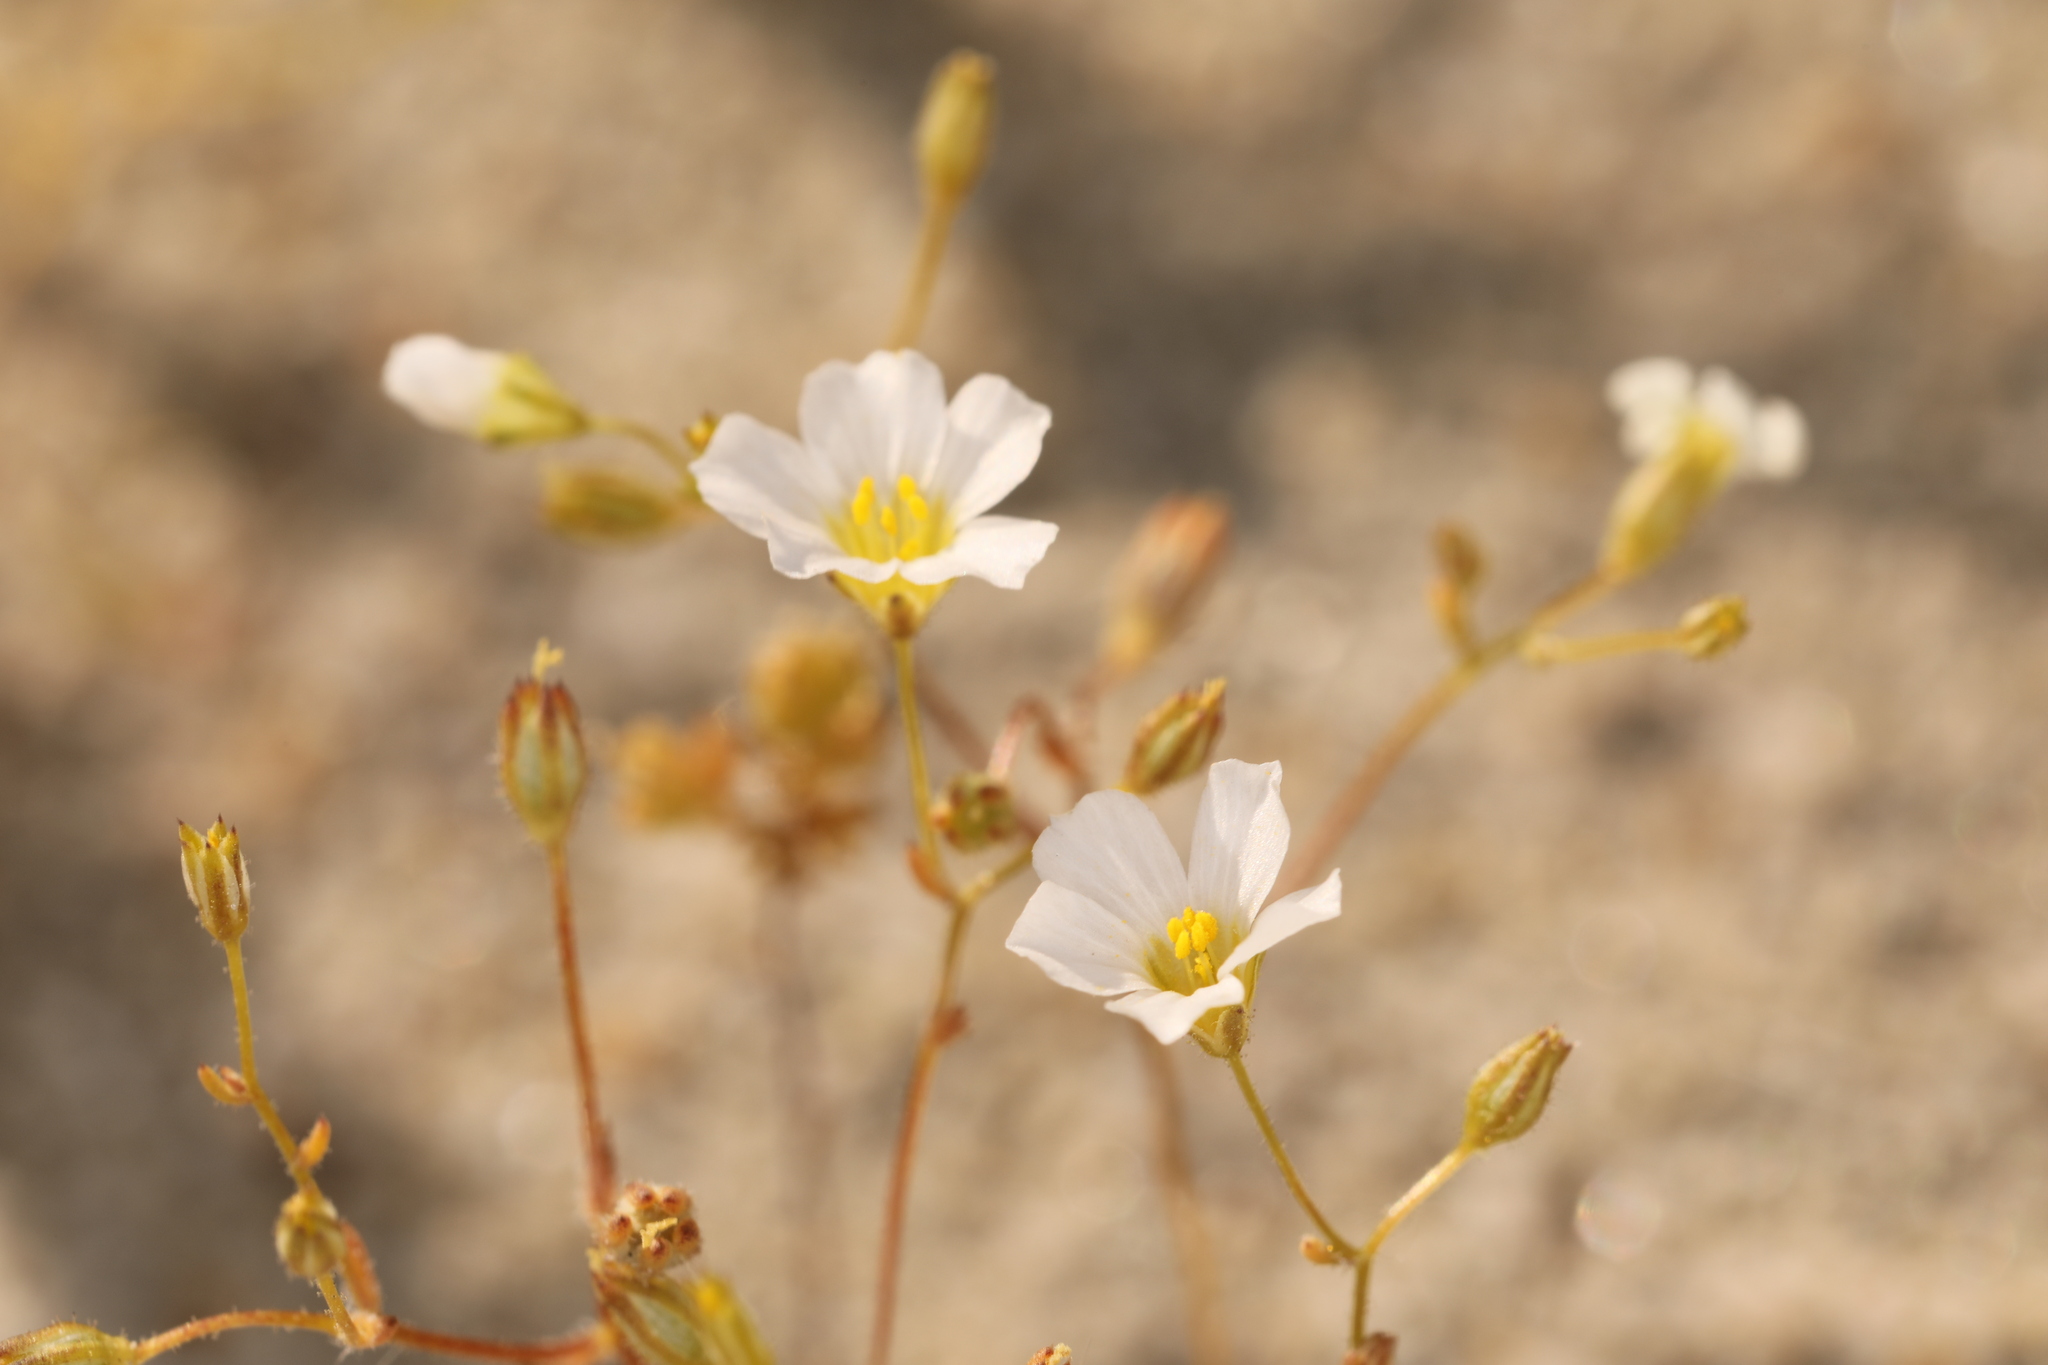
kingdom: Plantae
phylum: Tracheophyta
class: Magnoliopsida
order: Ericales
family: Polemoniaceae
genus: Linanthus
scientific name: Linanthus inyoensis
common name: Inyo gilia
